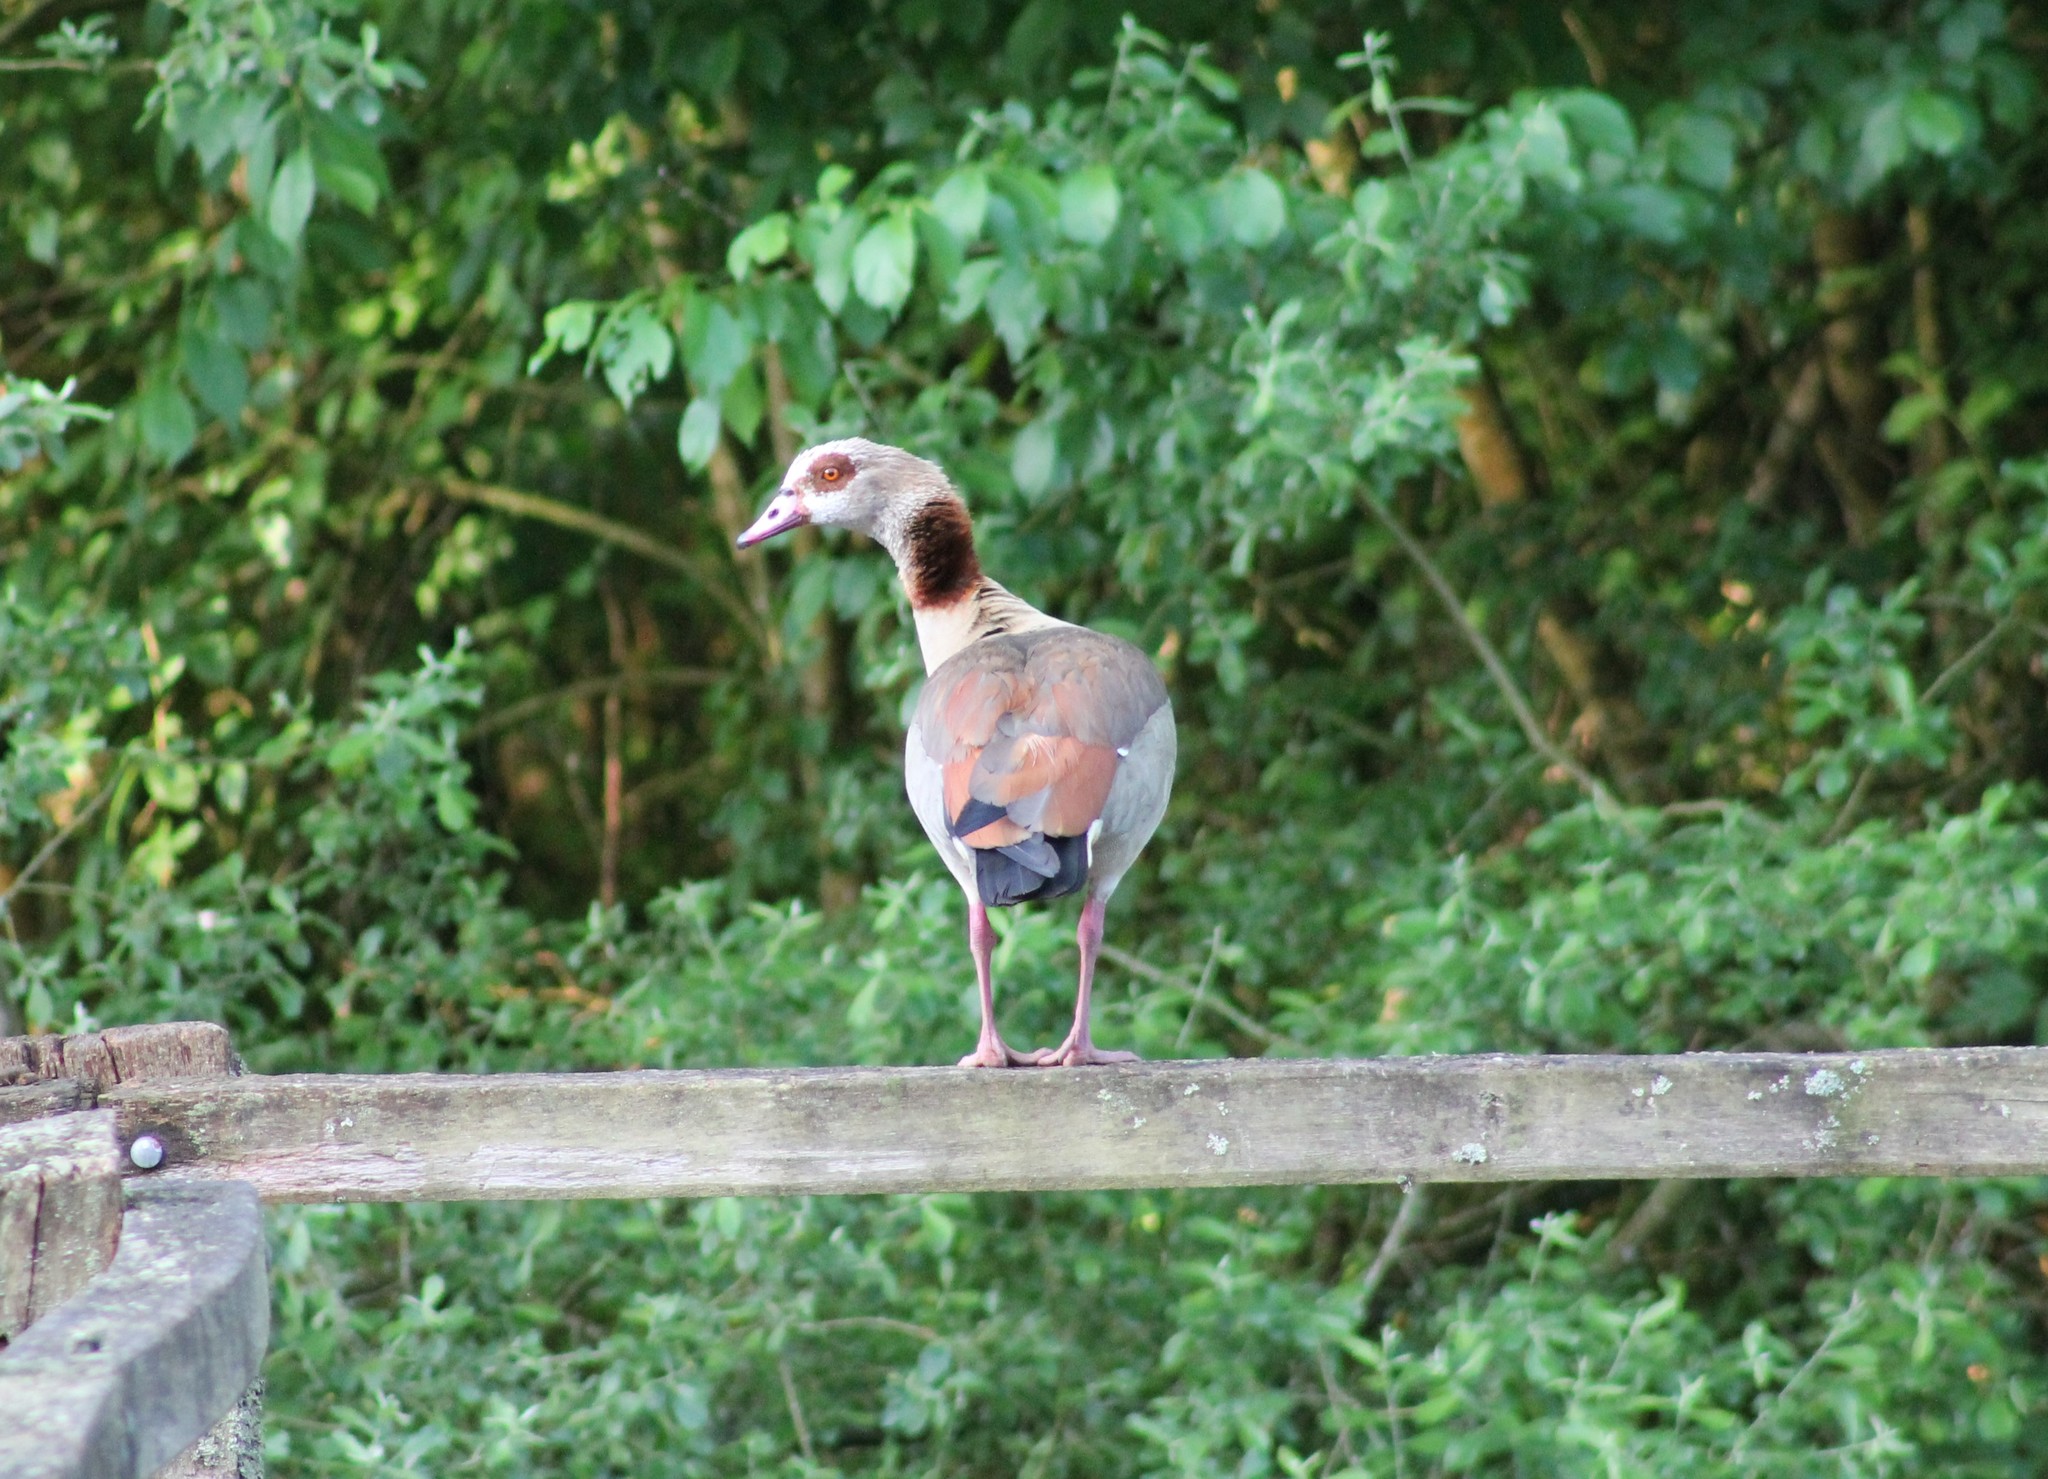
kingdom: Animalia
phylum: Chordata
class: Aves
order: Anseriformes
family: Anatidae
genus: Alopochen
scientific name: Alopochen aegyptiaca
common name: Egyptian goose
